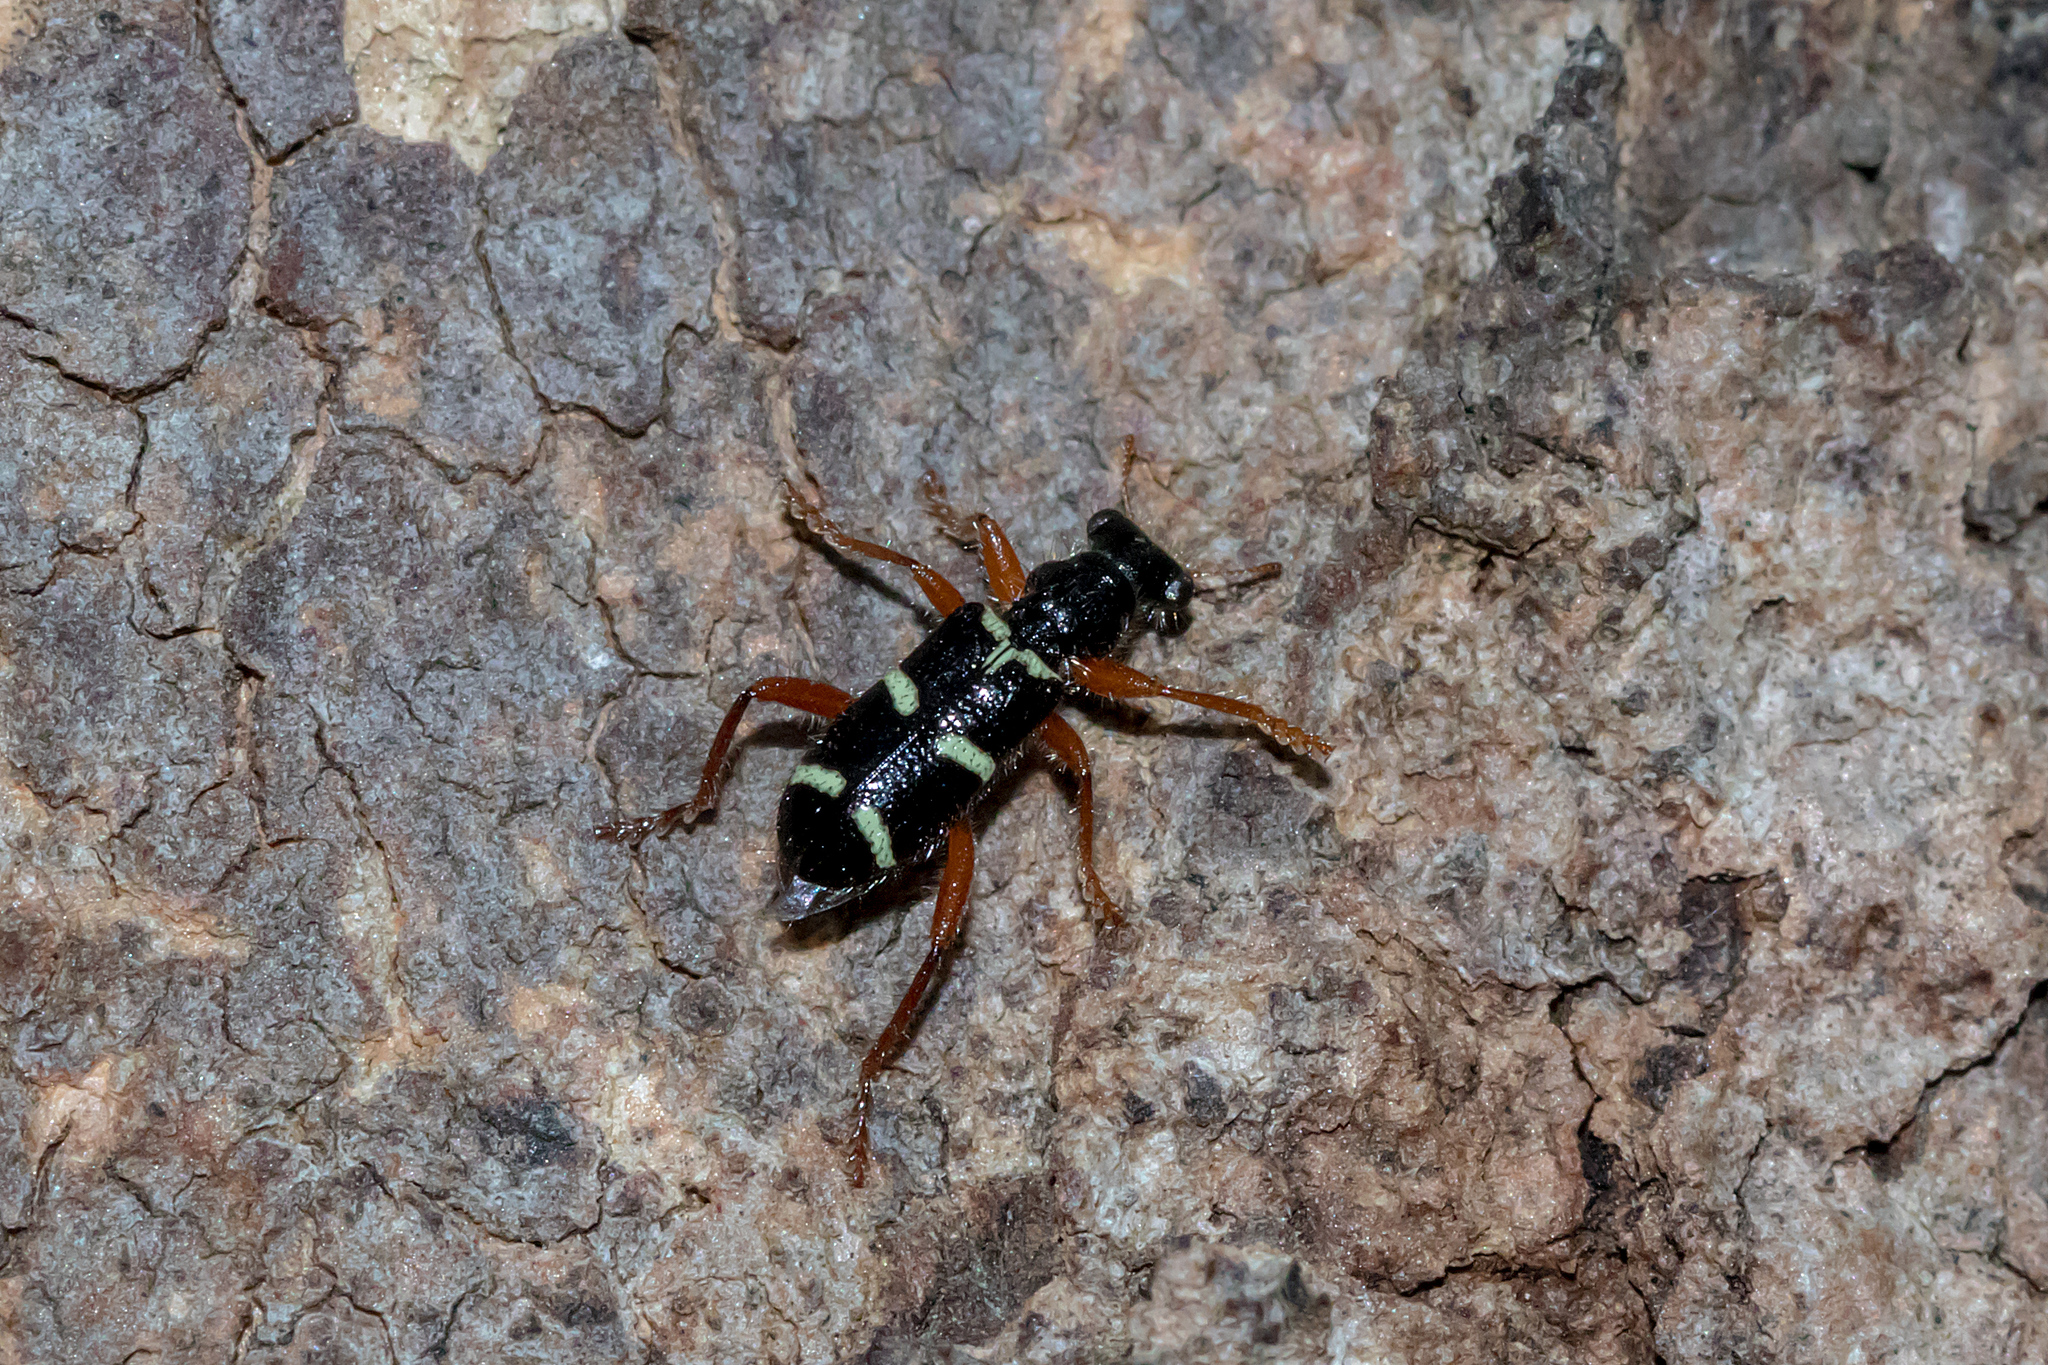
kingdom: Animalia
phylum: Arthropoda
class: Insecta
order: Coleoptera
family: Cleridae
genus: Lemidia
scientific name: Lemidia nitens
